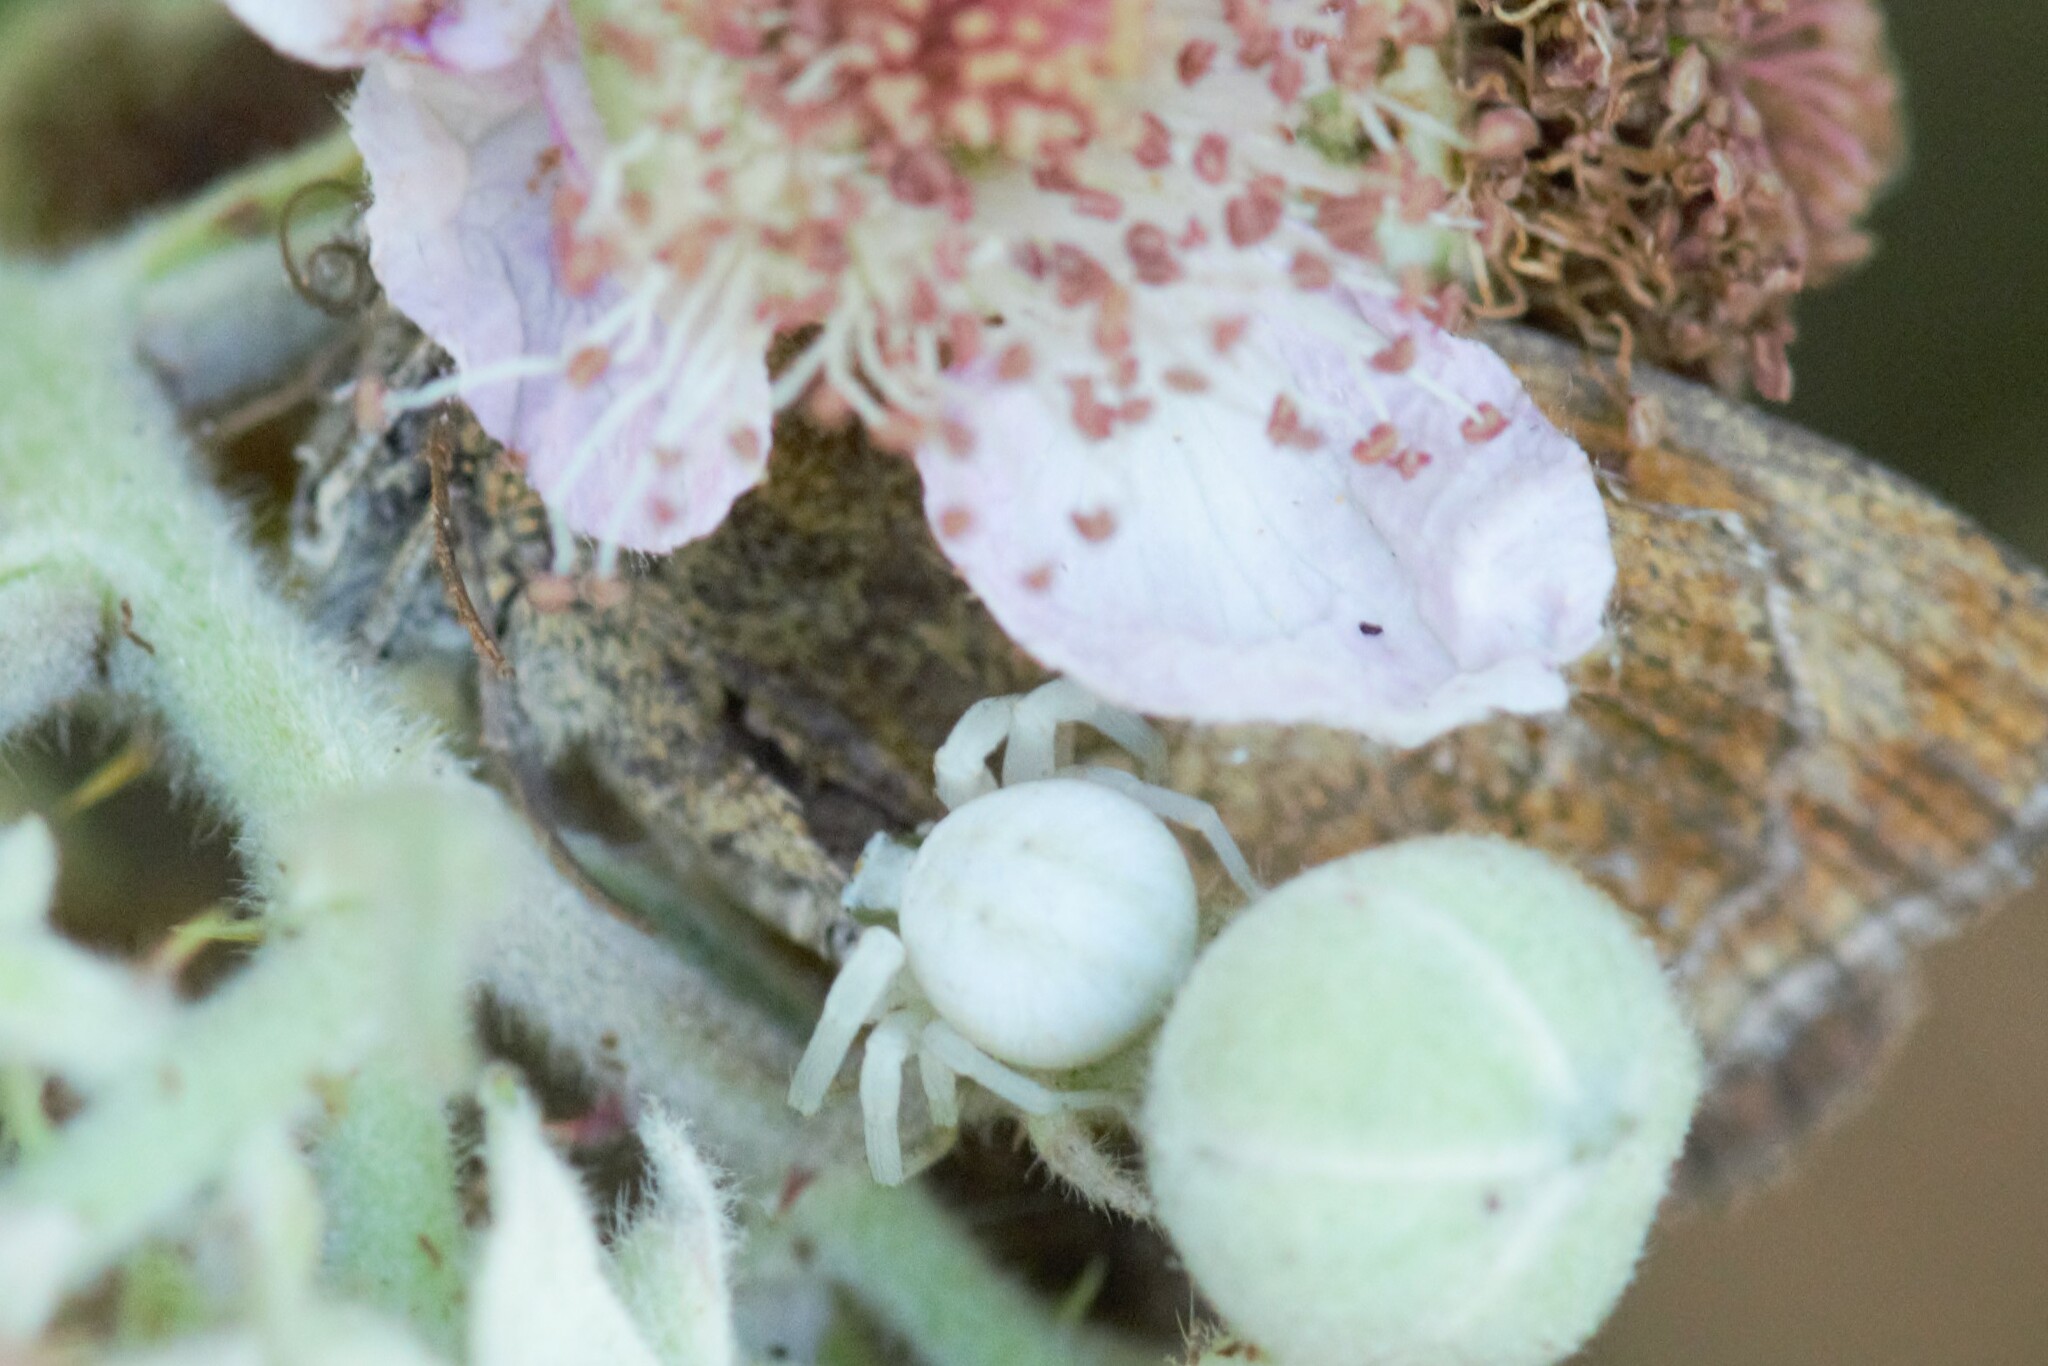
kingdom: Animalia
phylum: Arthropoda
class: Arachnida
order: Araneae
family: Thomisidae
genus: Misumena
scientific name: Misumena vatia
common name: Goldenrod crab spider
